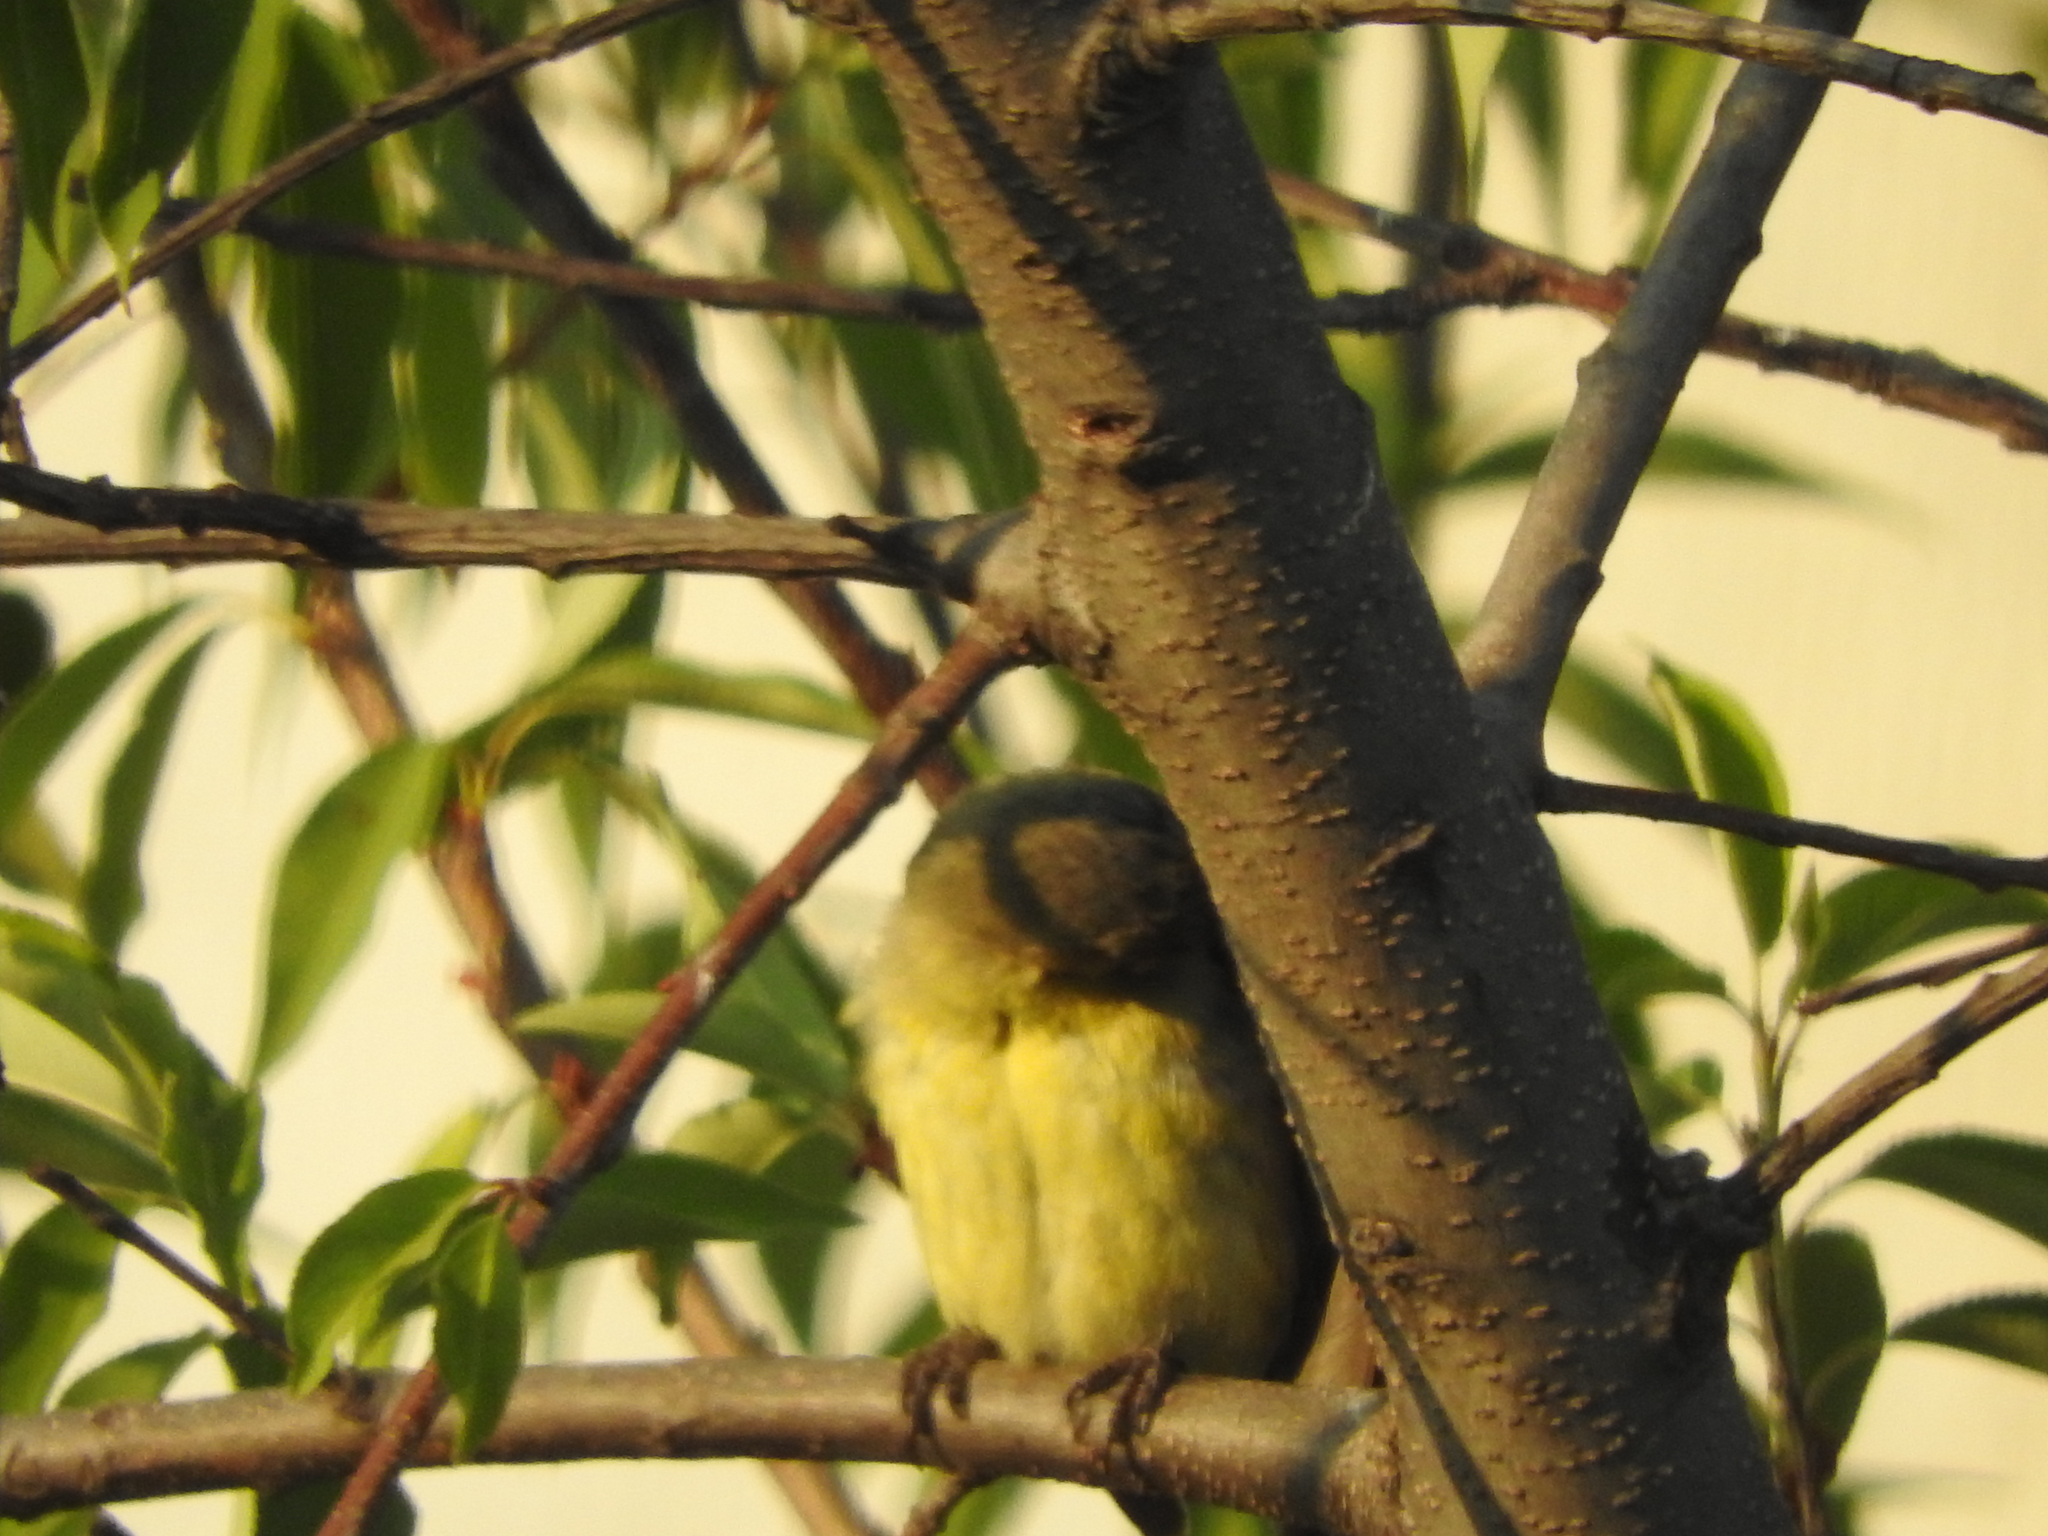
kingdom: Animalia
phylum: Chordata
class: Aves
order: Passeriformes
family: Fringillidae
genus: Spinus
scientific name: Spinus psaltria
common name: Lesser goldfinch
